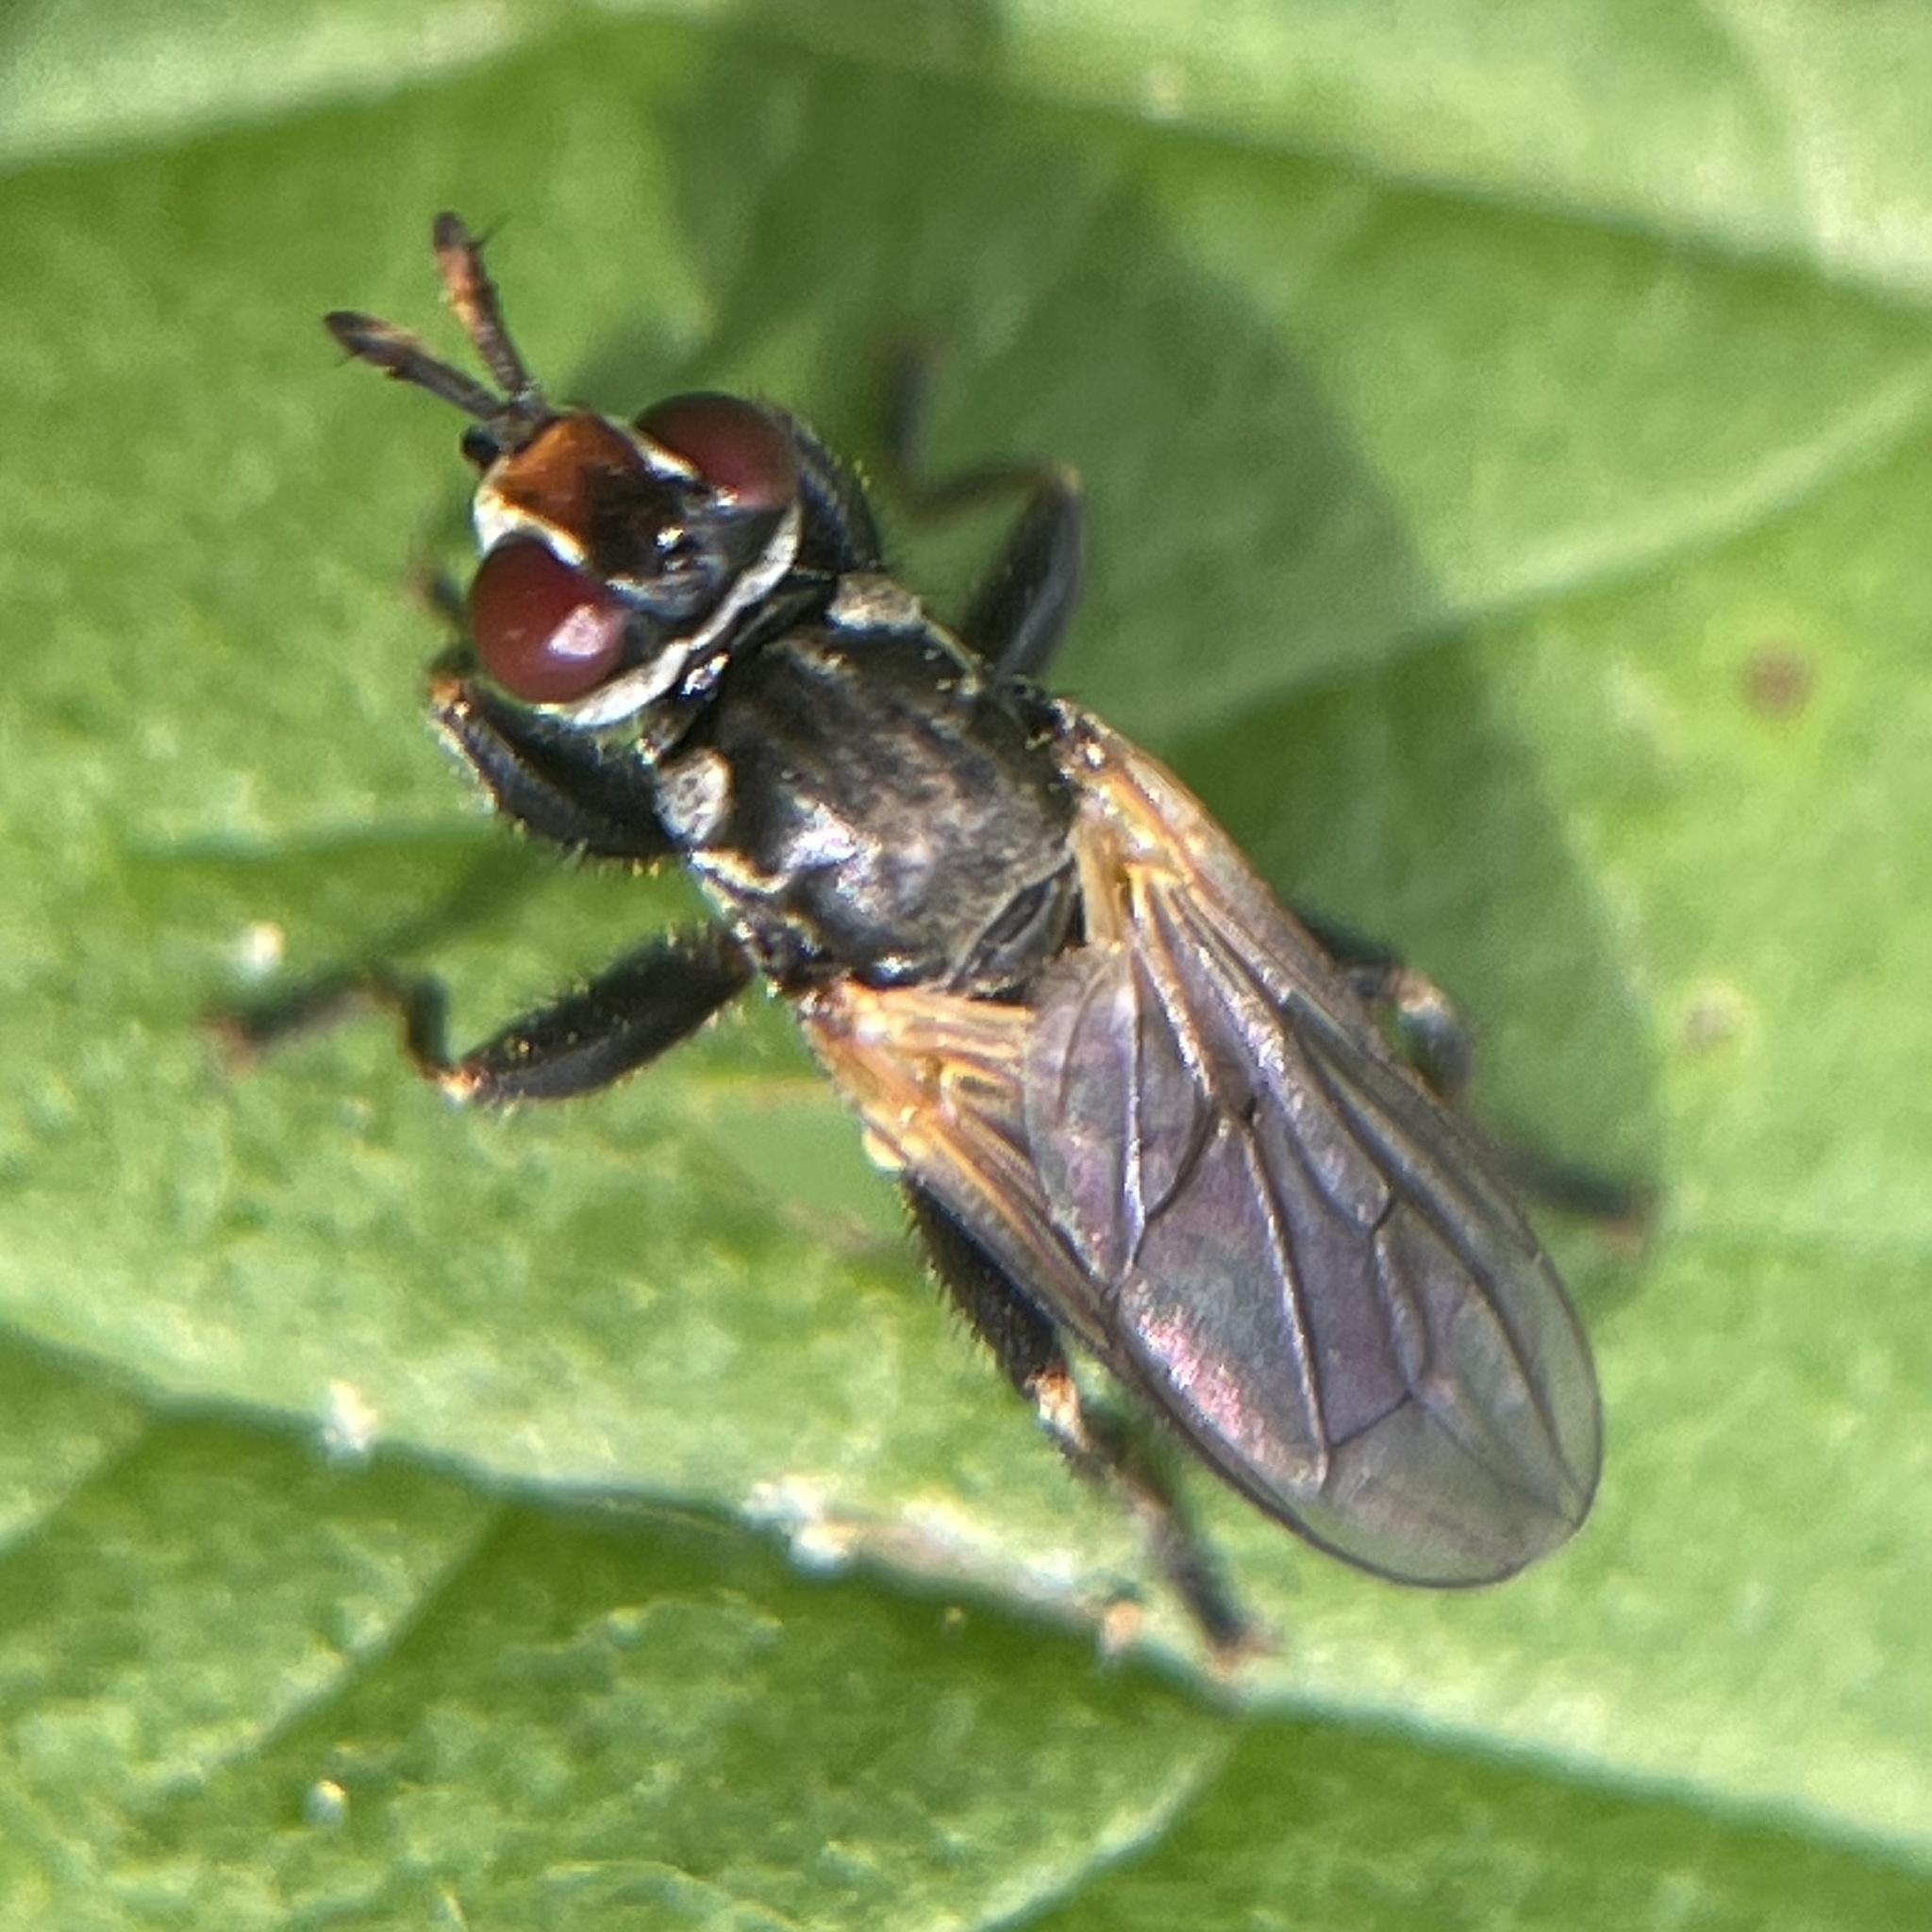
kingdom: Animalia
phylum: Arthropoda
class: Insecta
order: Diptera
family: Conopidae
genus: Thecophora
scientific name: Thecophora propinqua
